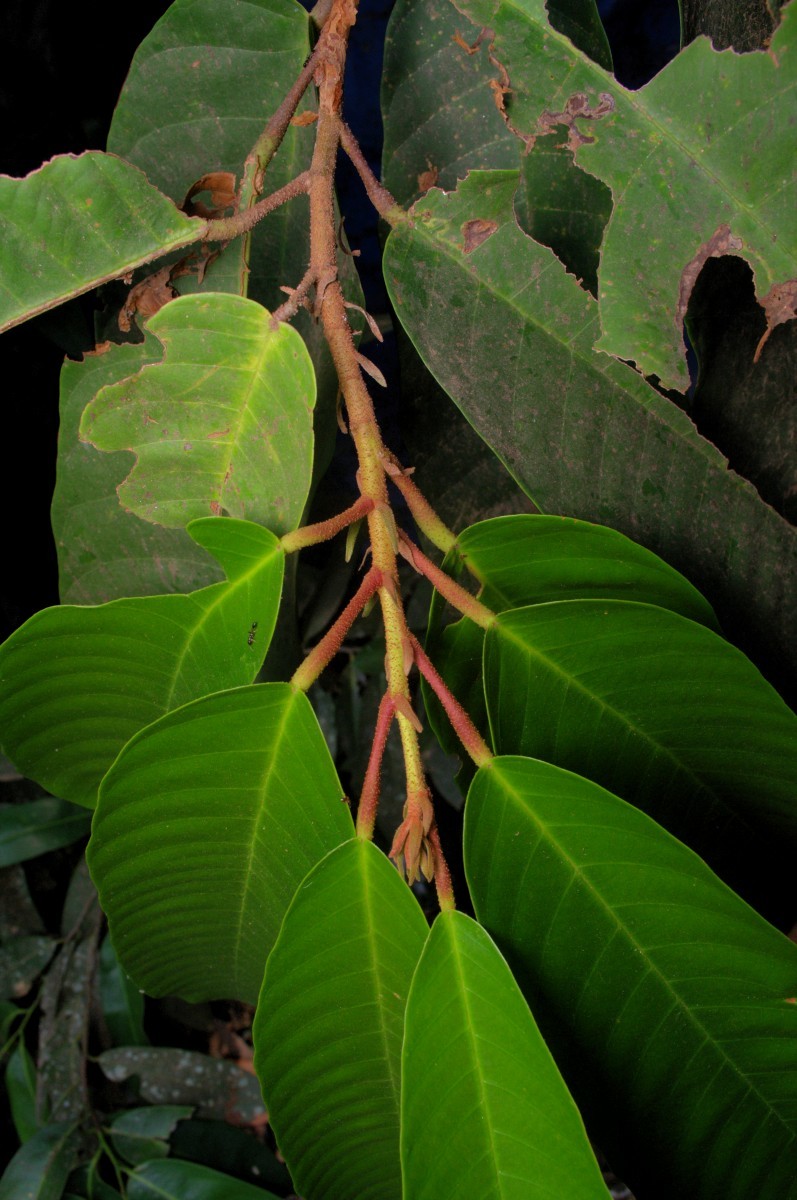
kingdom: Plantae
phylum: Tracheophyta
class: Magnoliopsida
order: Malvales
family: Dipterocarpaceae
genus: Vateria
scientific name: Vateria indica
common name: White dammar
